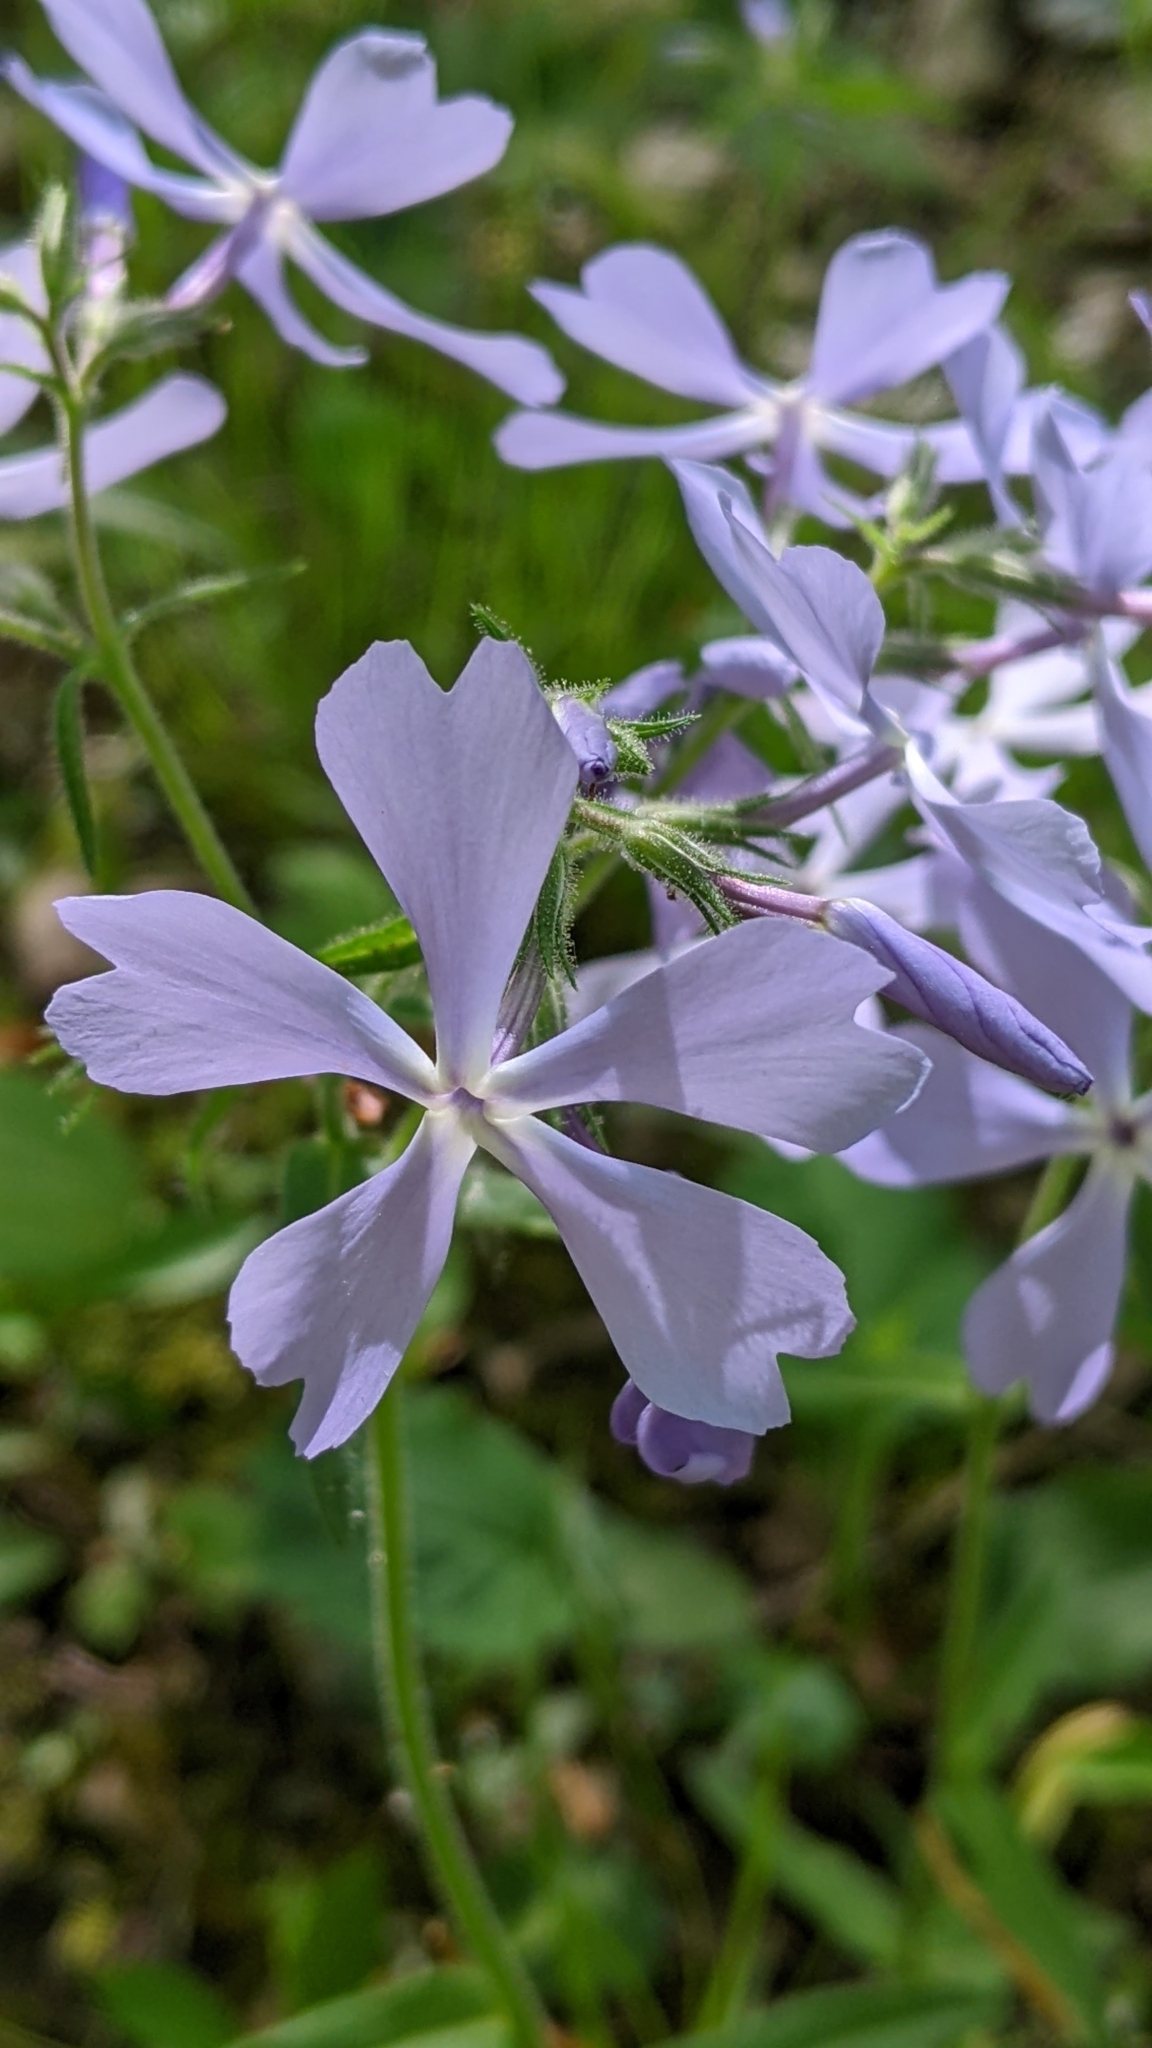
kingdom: Plantae
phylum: Tracheophyta
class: Magnoliopsida
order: Ericales
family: Polemoniaceae
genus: Phlox
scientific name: Phlox divaricata
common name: Blue phlox
